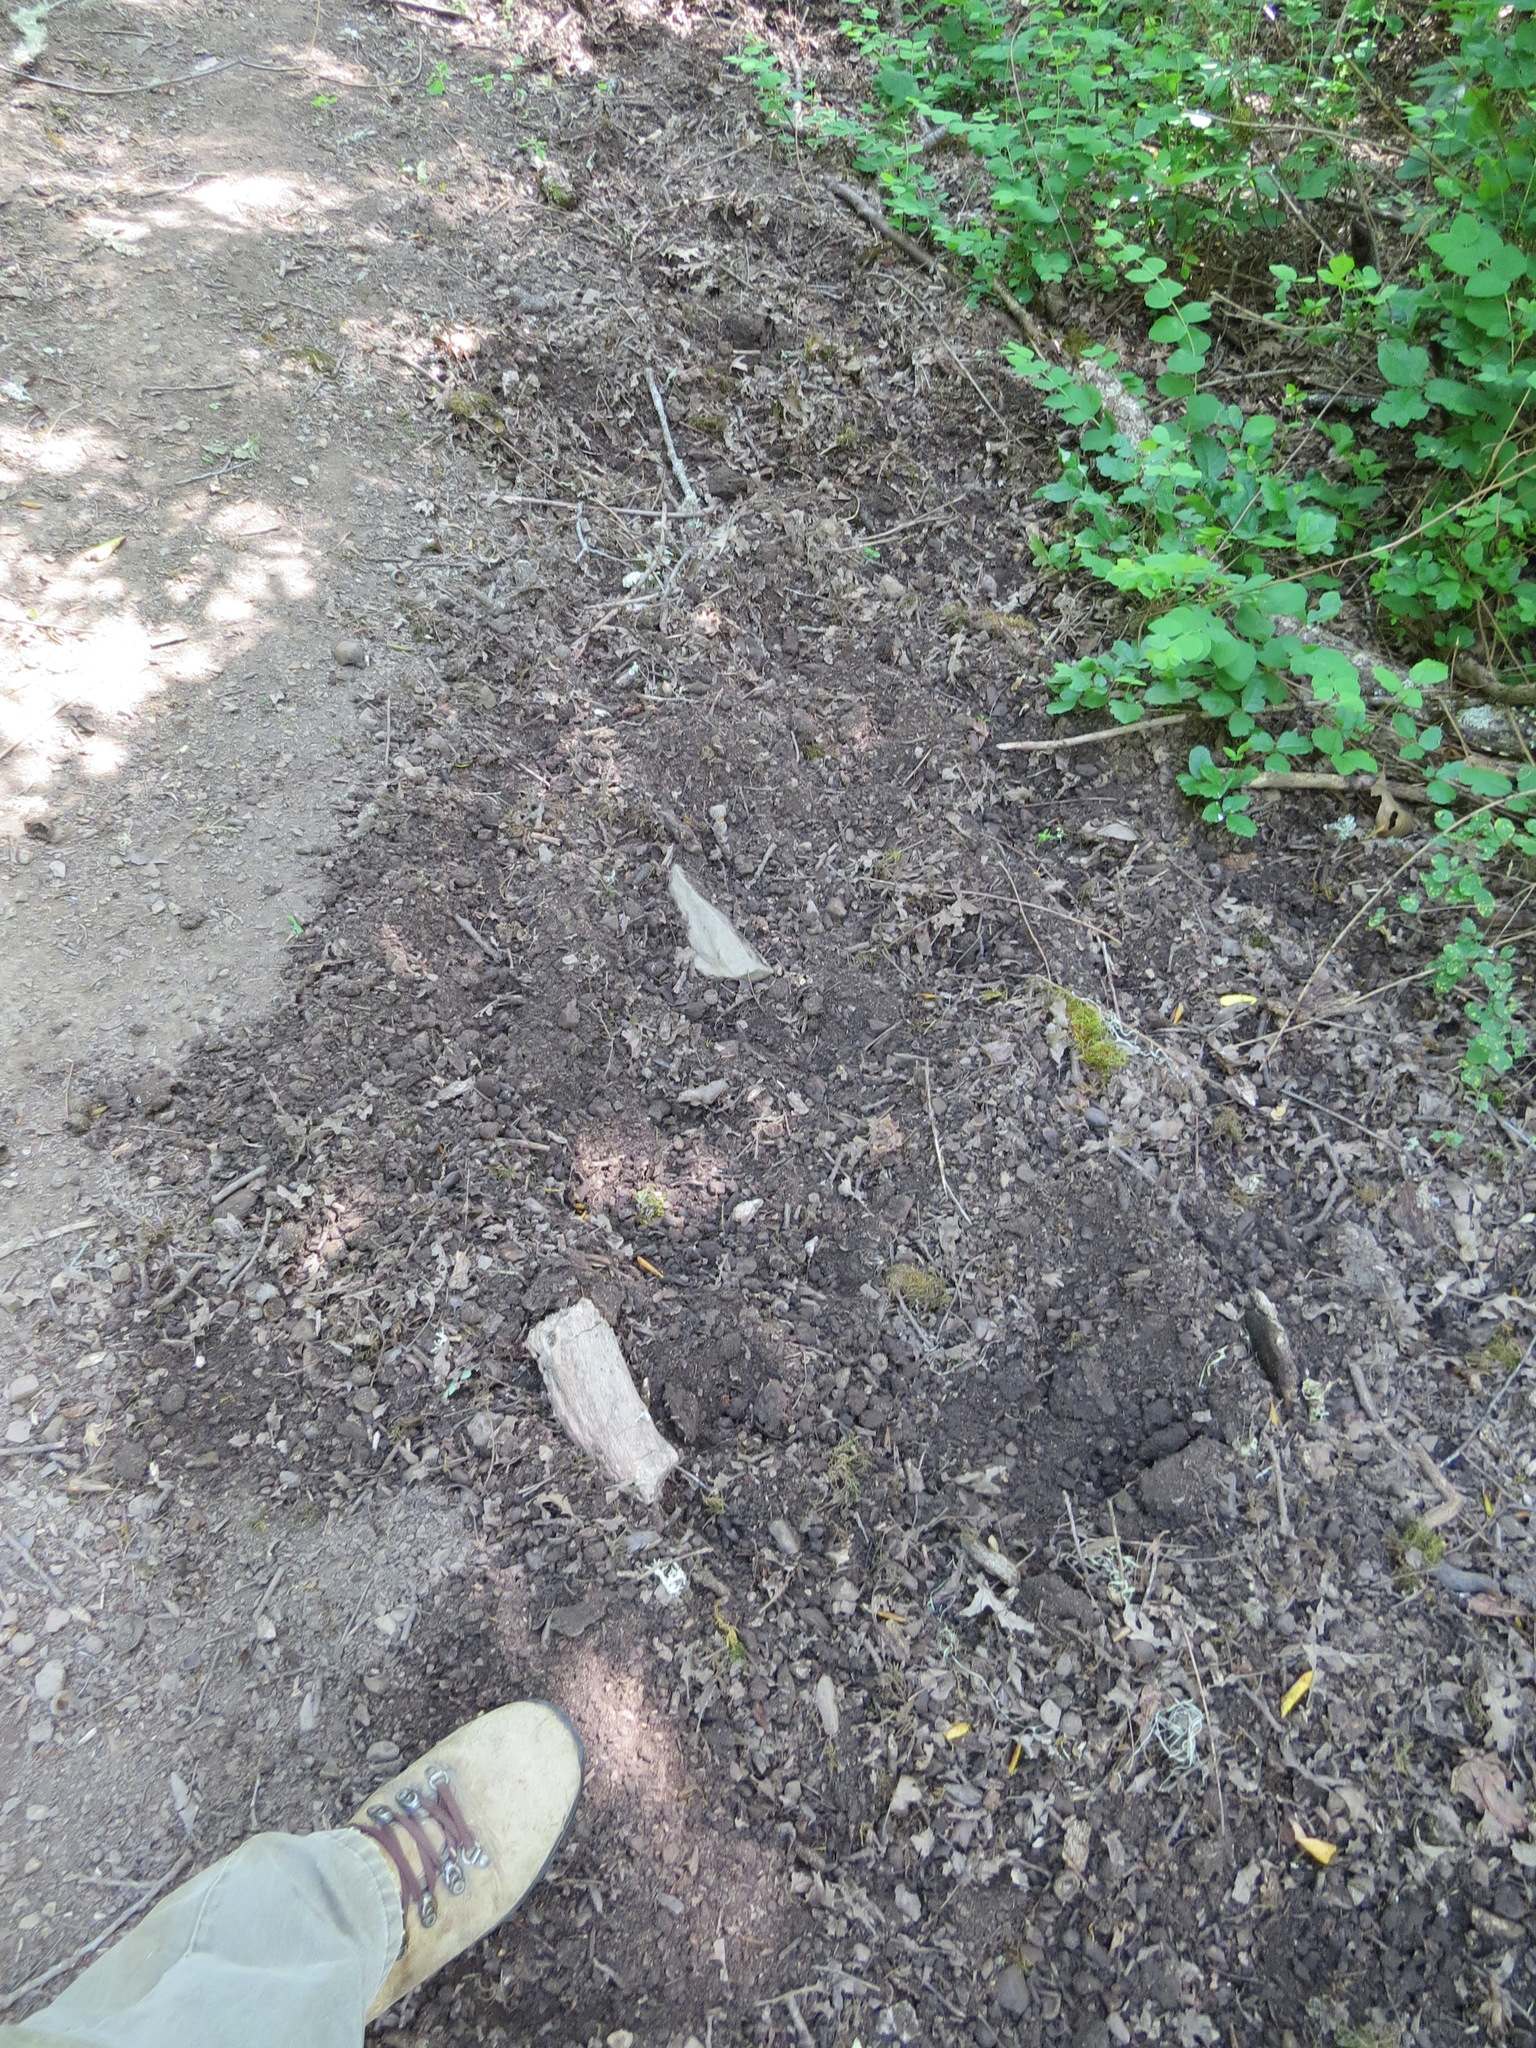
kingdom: Animalia
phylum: Chordata
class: Mammalia
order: Artiodactyla
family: Suidae
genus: Sus
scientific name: Sus scrofa
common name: Wild boar
